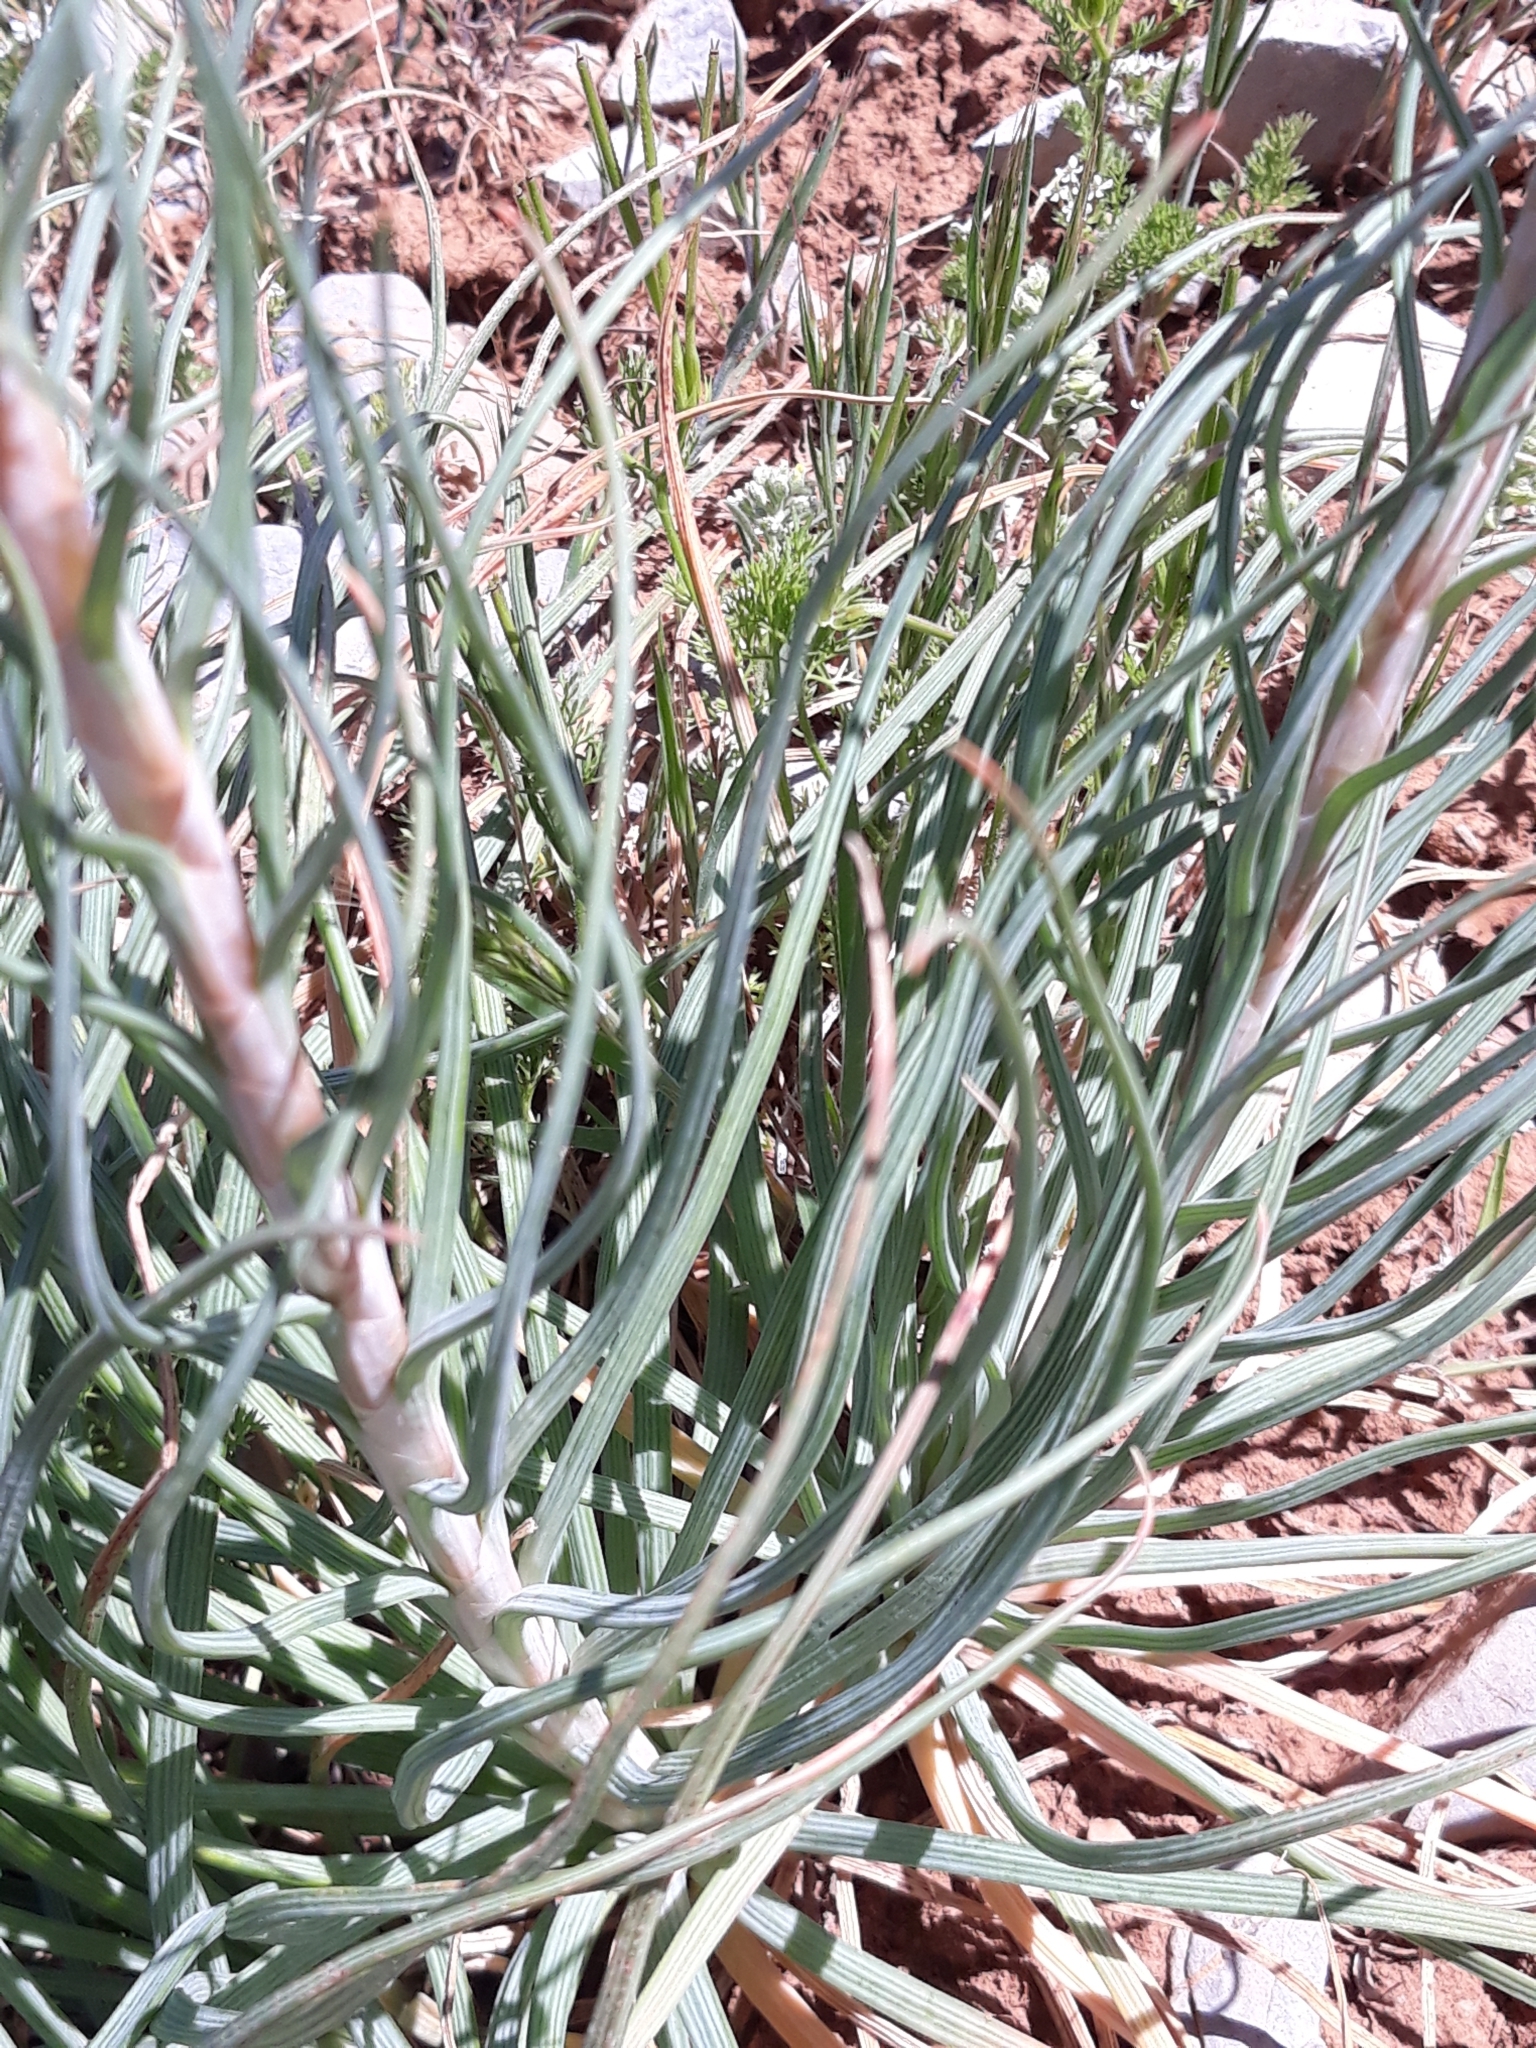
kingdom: Plantae
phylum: Tracheophyta
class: Liliopsida
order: Asparagales
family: Asphodelaceae
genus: Asphodeline
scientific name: Asphodeline lutea
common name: Yellow asphodel
